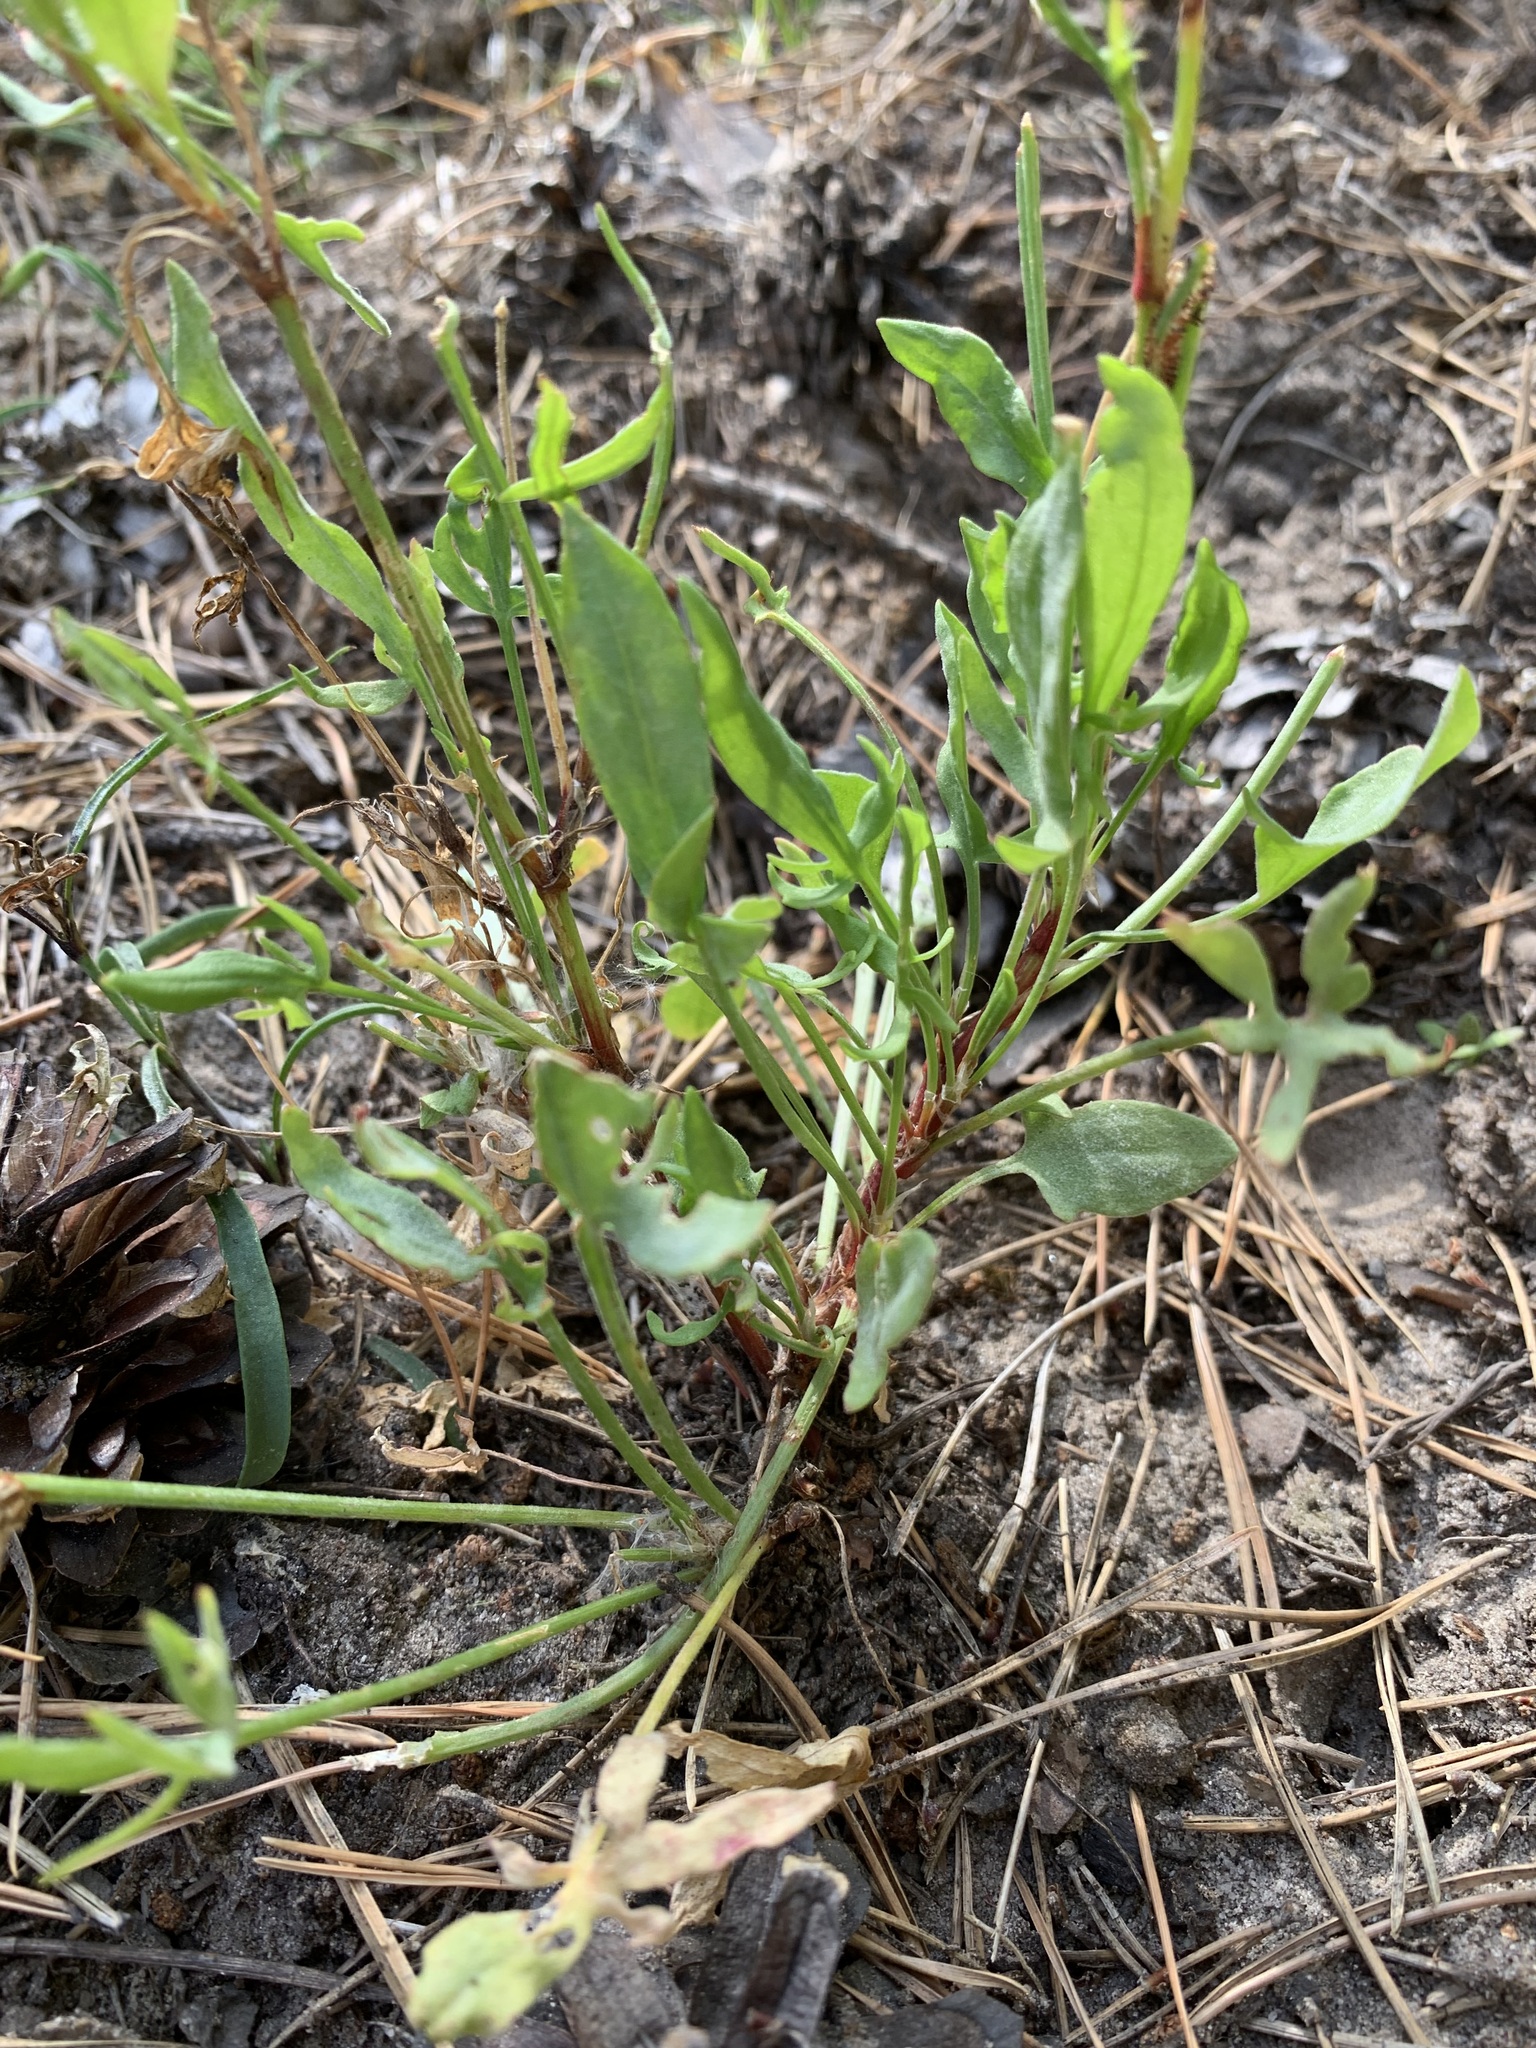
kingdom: Plantae
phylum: Tracheophyta
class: Magnoliopsida
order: Caryophyllales
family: Polygonaceae
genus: Rumex
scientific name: Rumex acetosella
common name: Common sheep sorrel
